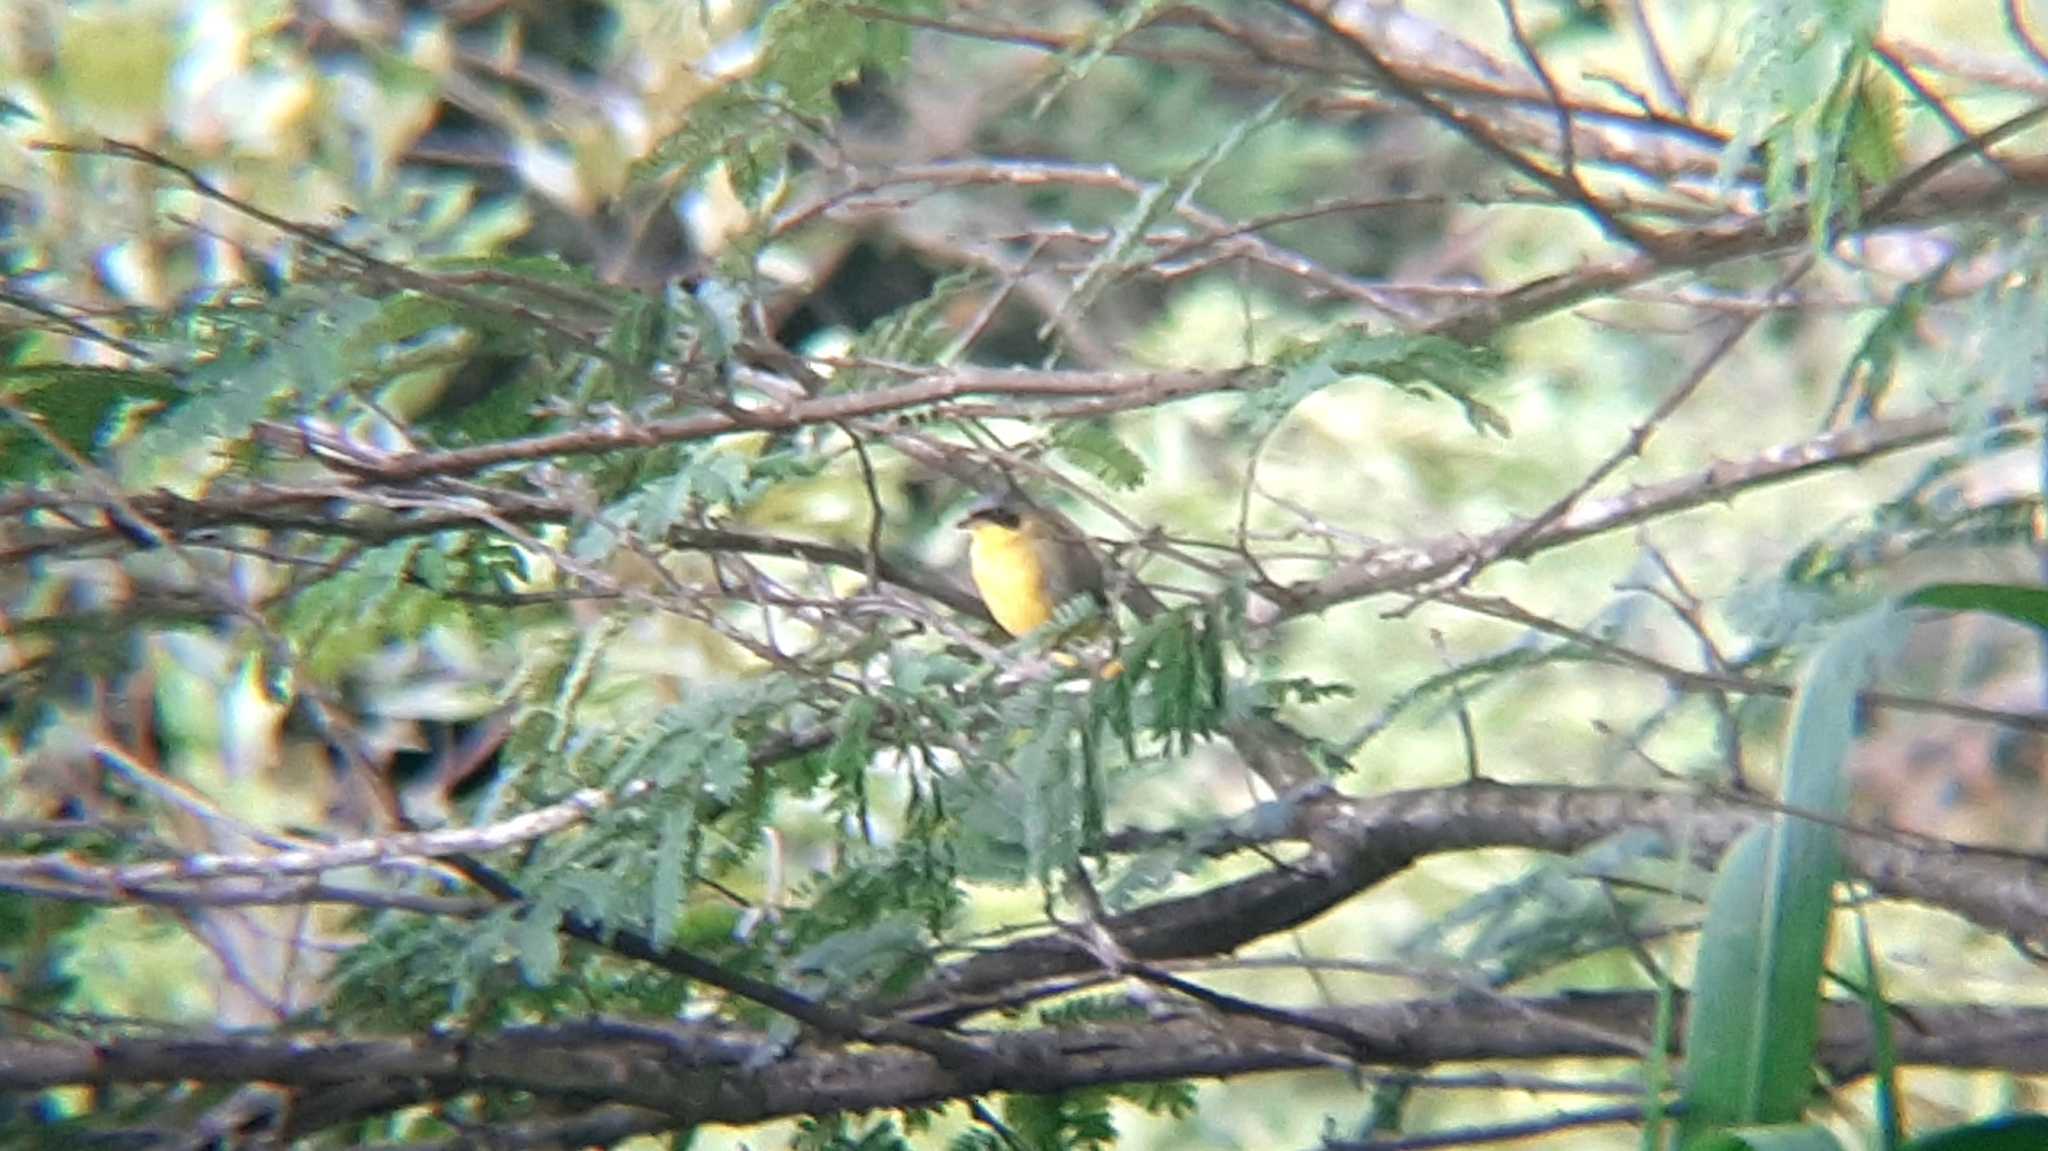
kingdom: Animalia
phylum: Chordata
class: Aves
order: Passeriformes
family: Parulidae
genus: Geothlypis
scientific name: Geothlypis velata
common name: Southern yellowthroat
